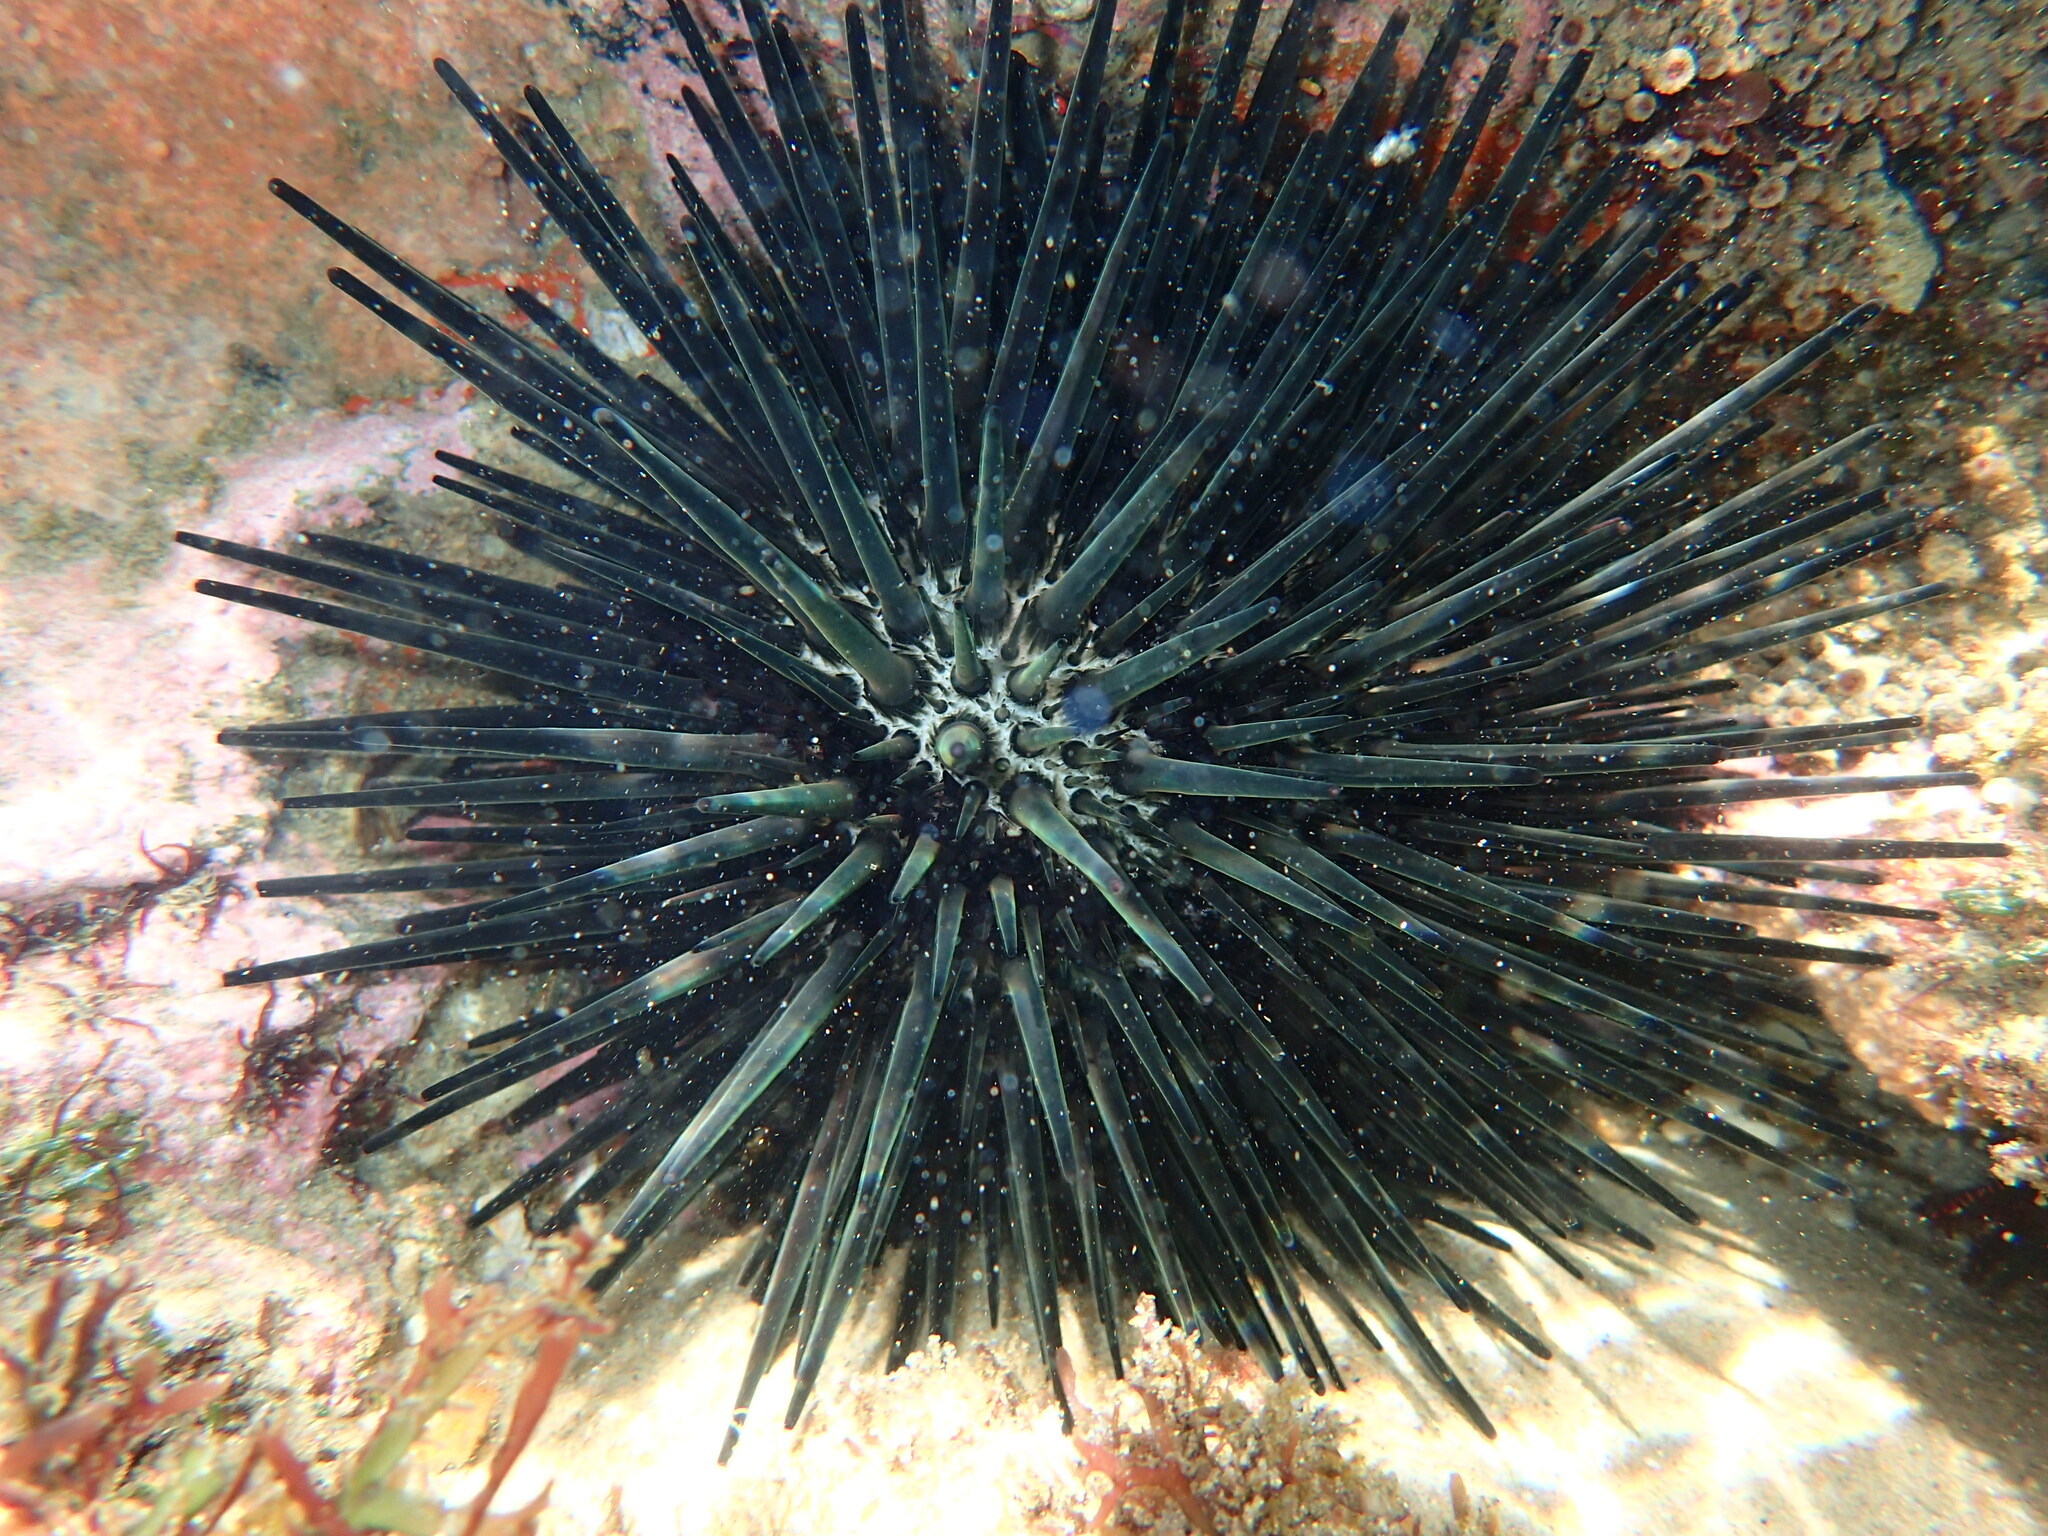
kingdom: Animalia
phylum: Echinodermata
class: Echinoidea
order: Stomopneustoida
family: Stomopneustidae
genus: Stomopneustes
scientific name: Stomopneustes variolaris
